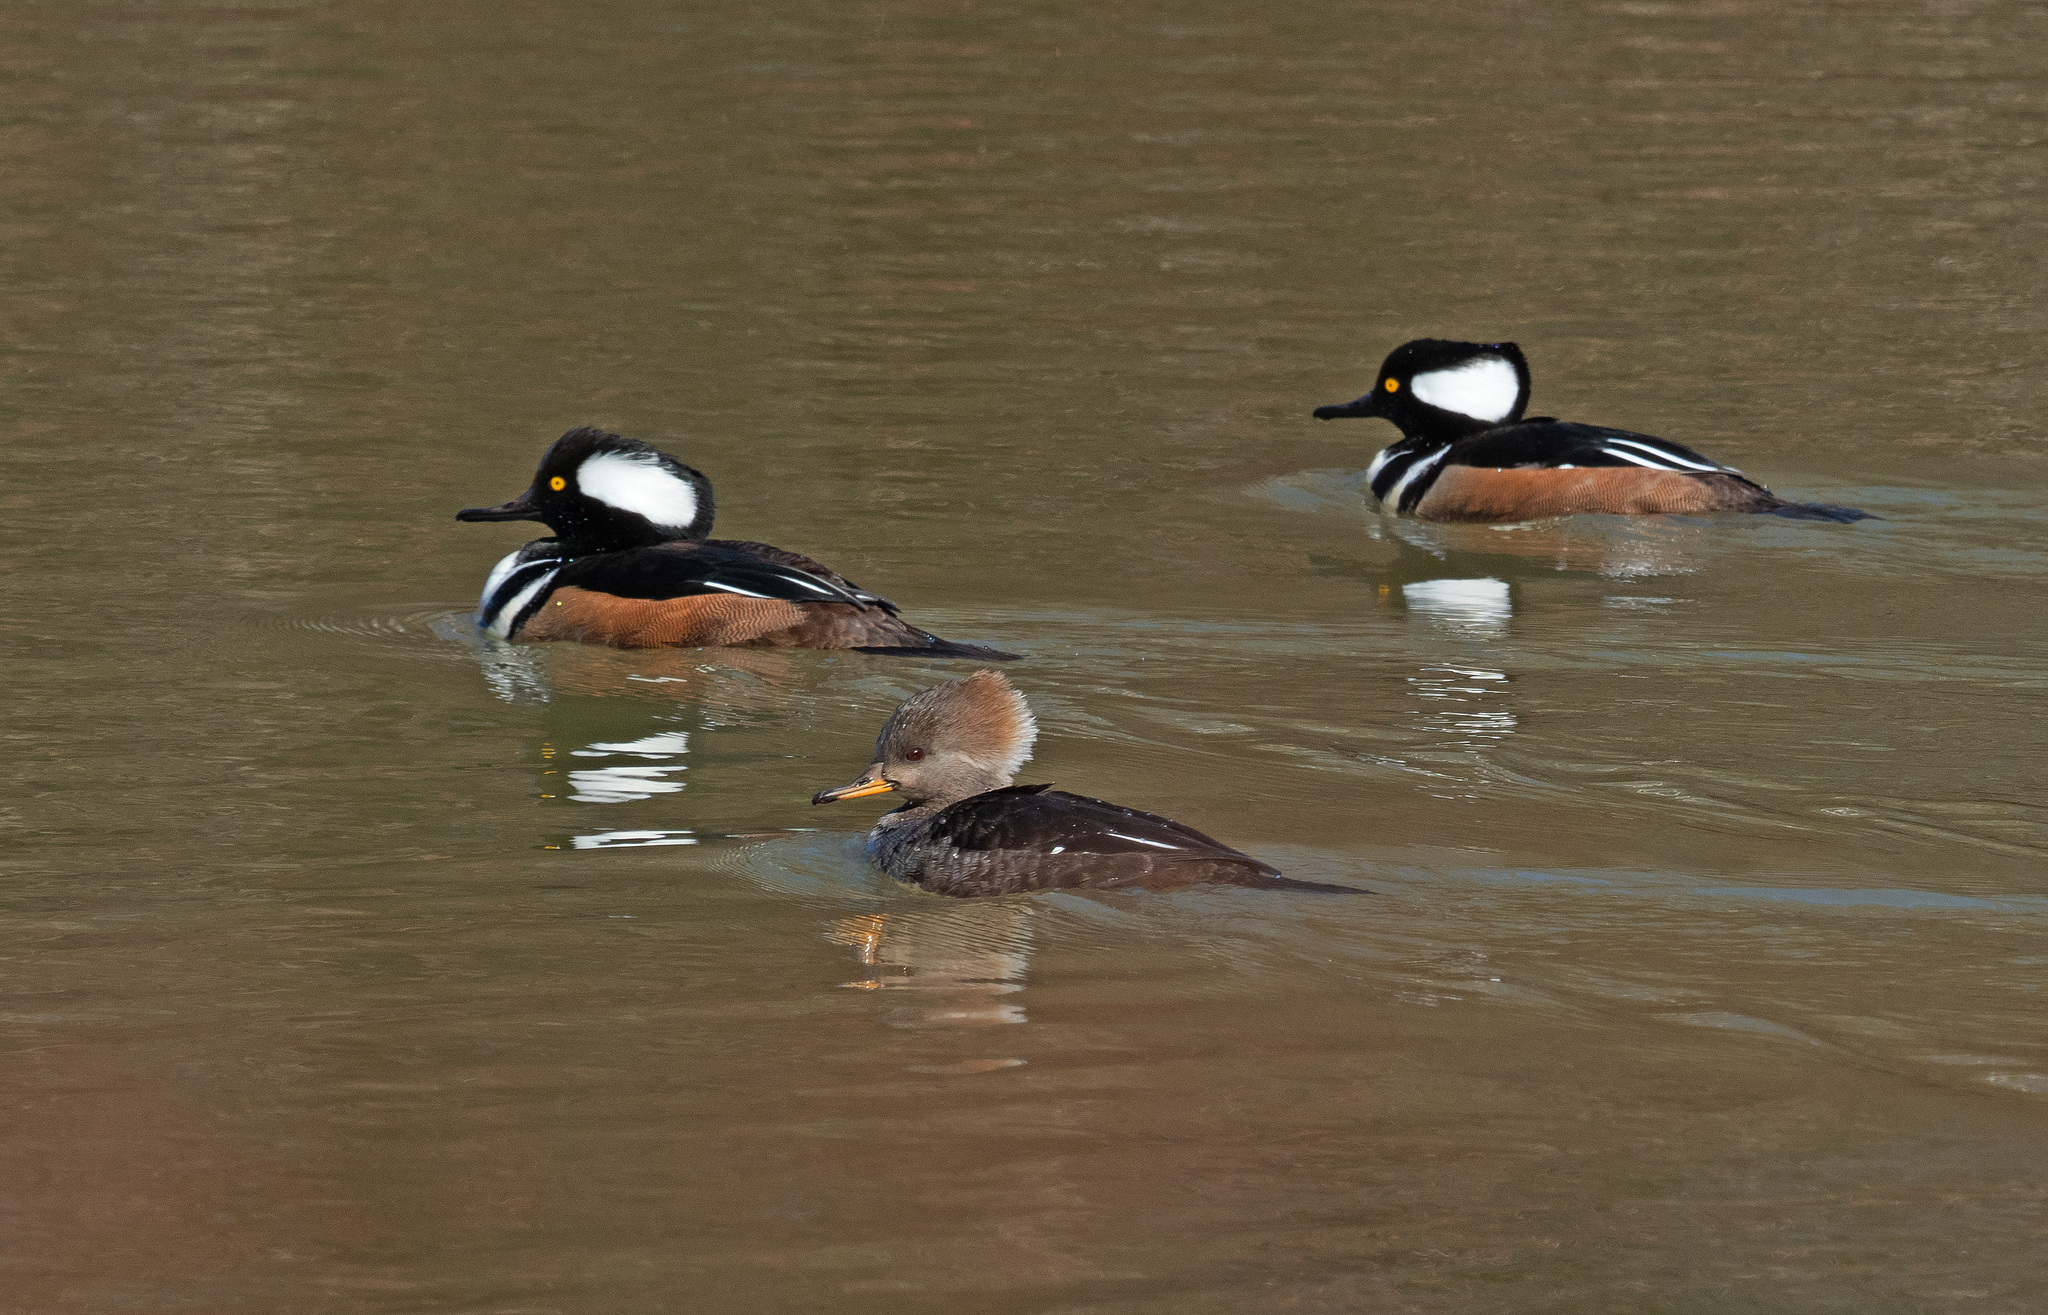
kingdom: Animalia
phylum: Chordata
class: Aves
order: Anseriformes
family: Anatidae
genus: Lophodytes
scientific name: Lophodytes cucullatus
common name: Hooded merganser
